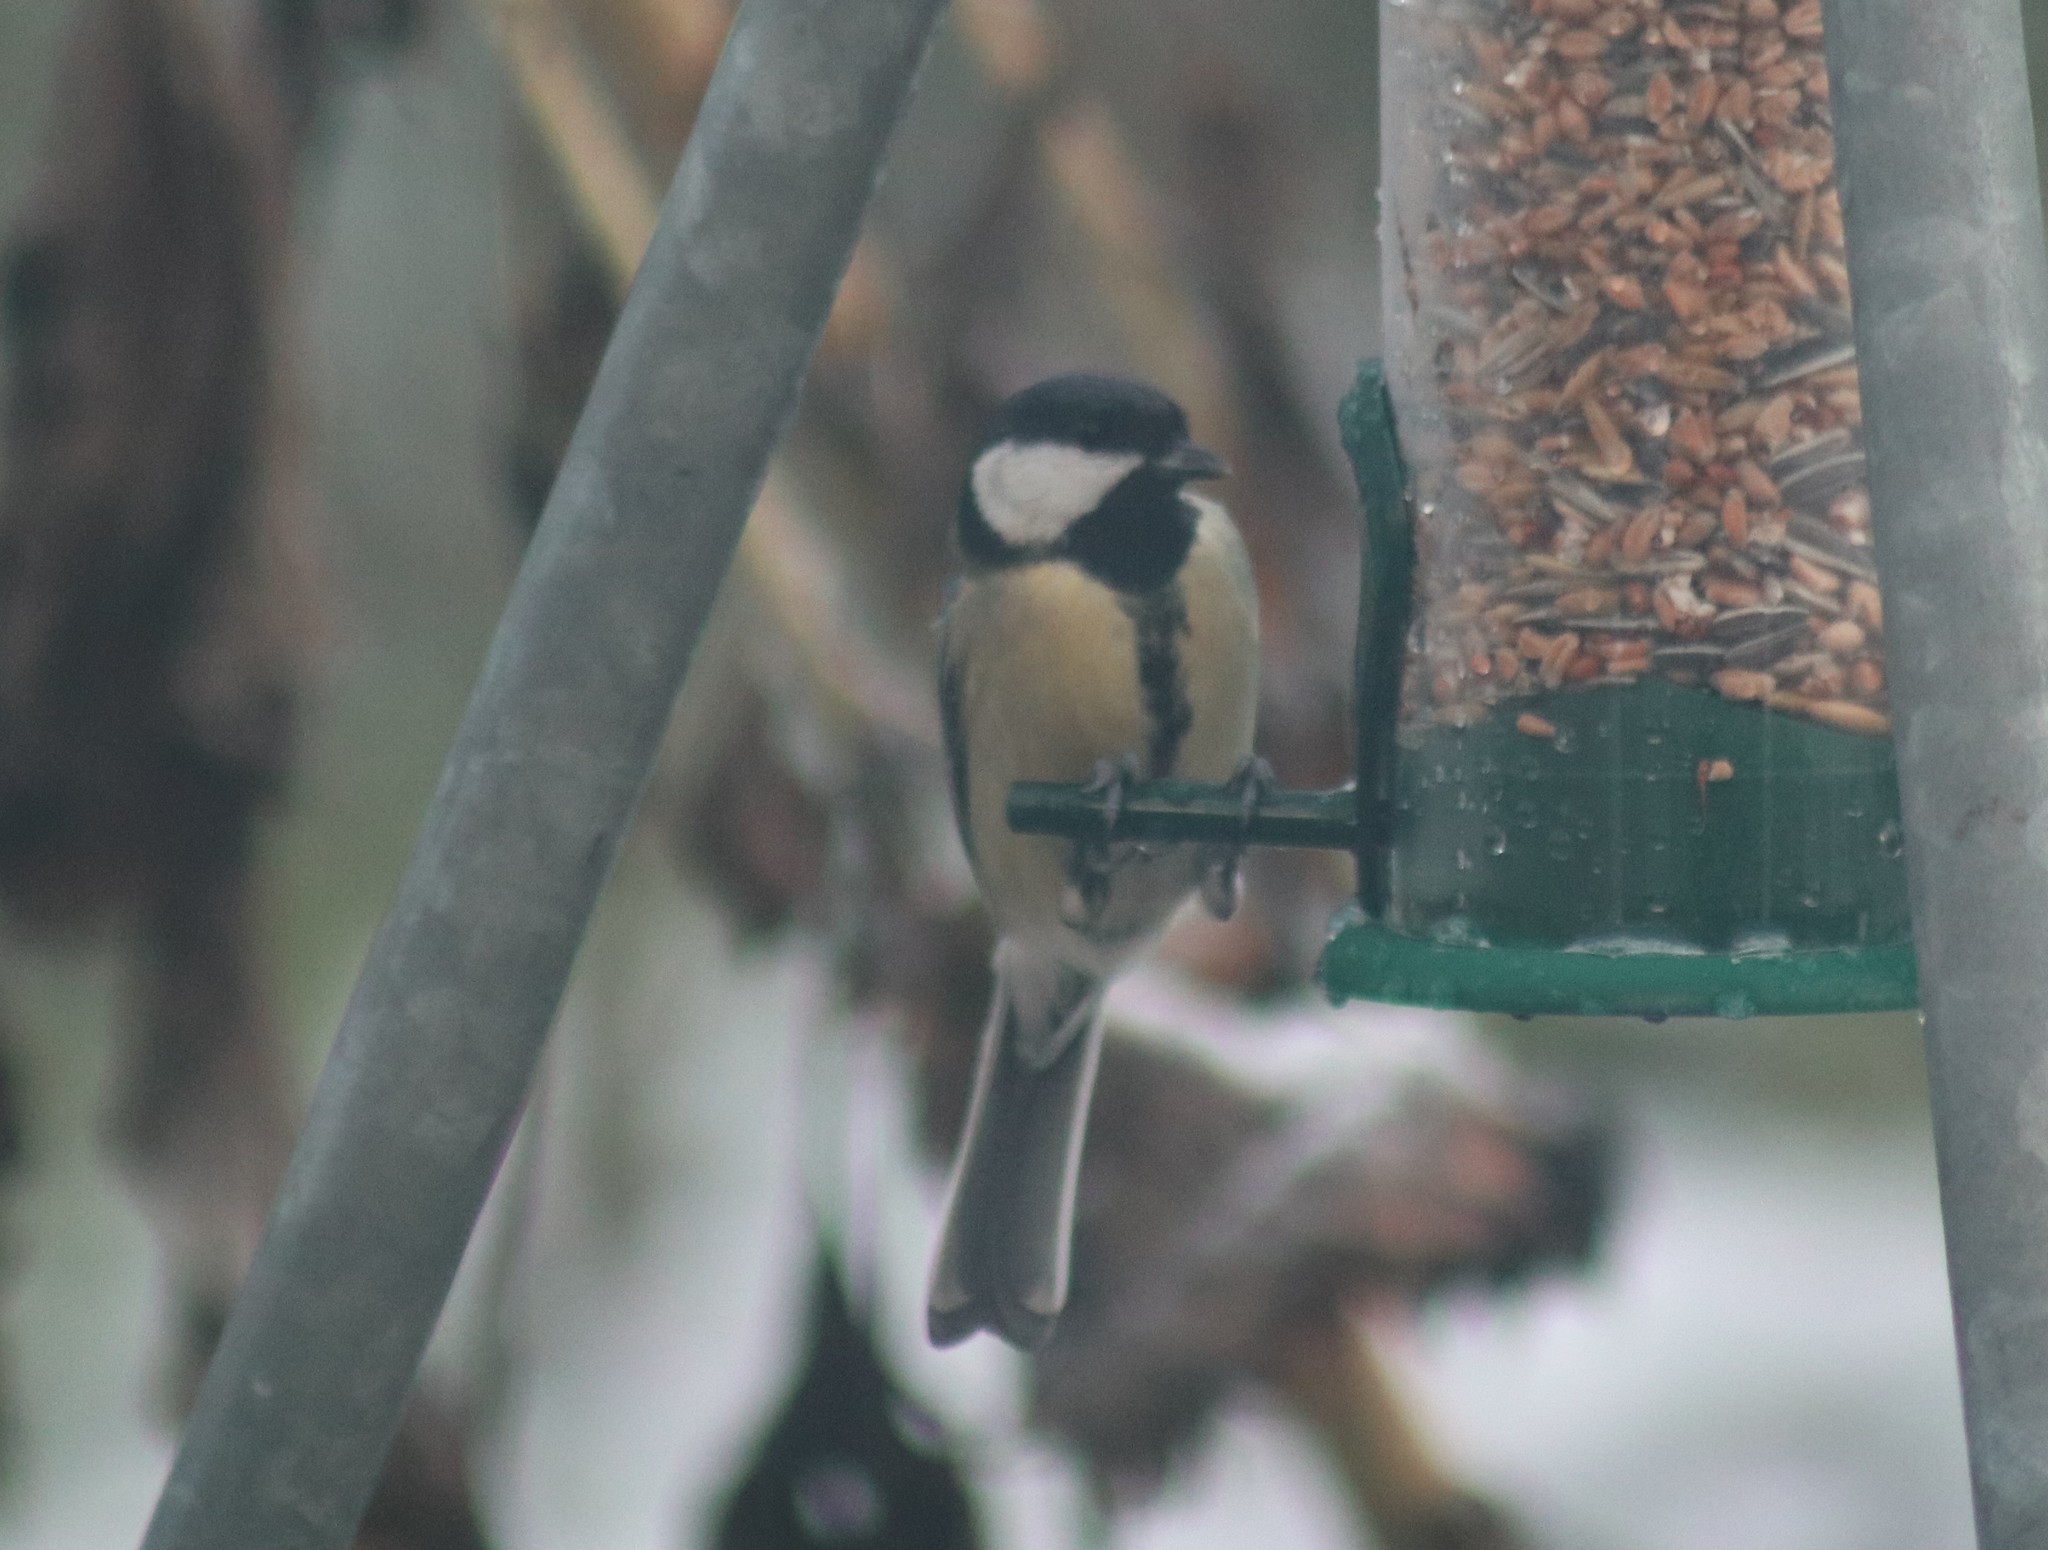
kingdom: Animalia
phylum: Chordata
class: Aves
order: Passeriformes
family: Paridae
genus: Parus
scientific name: Parus major
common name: Great tit
